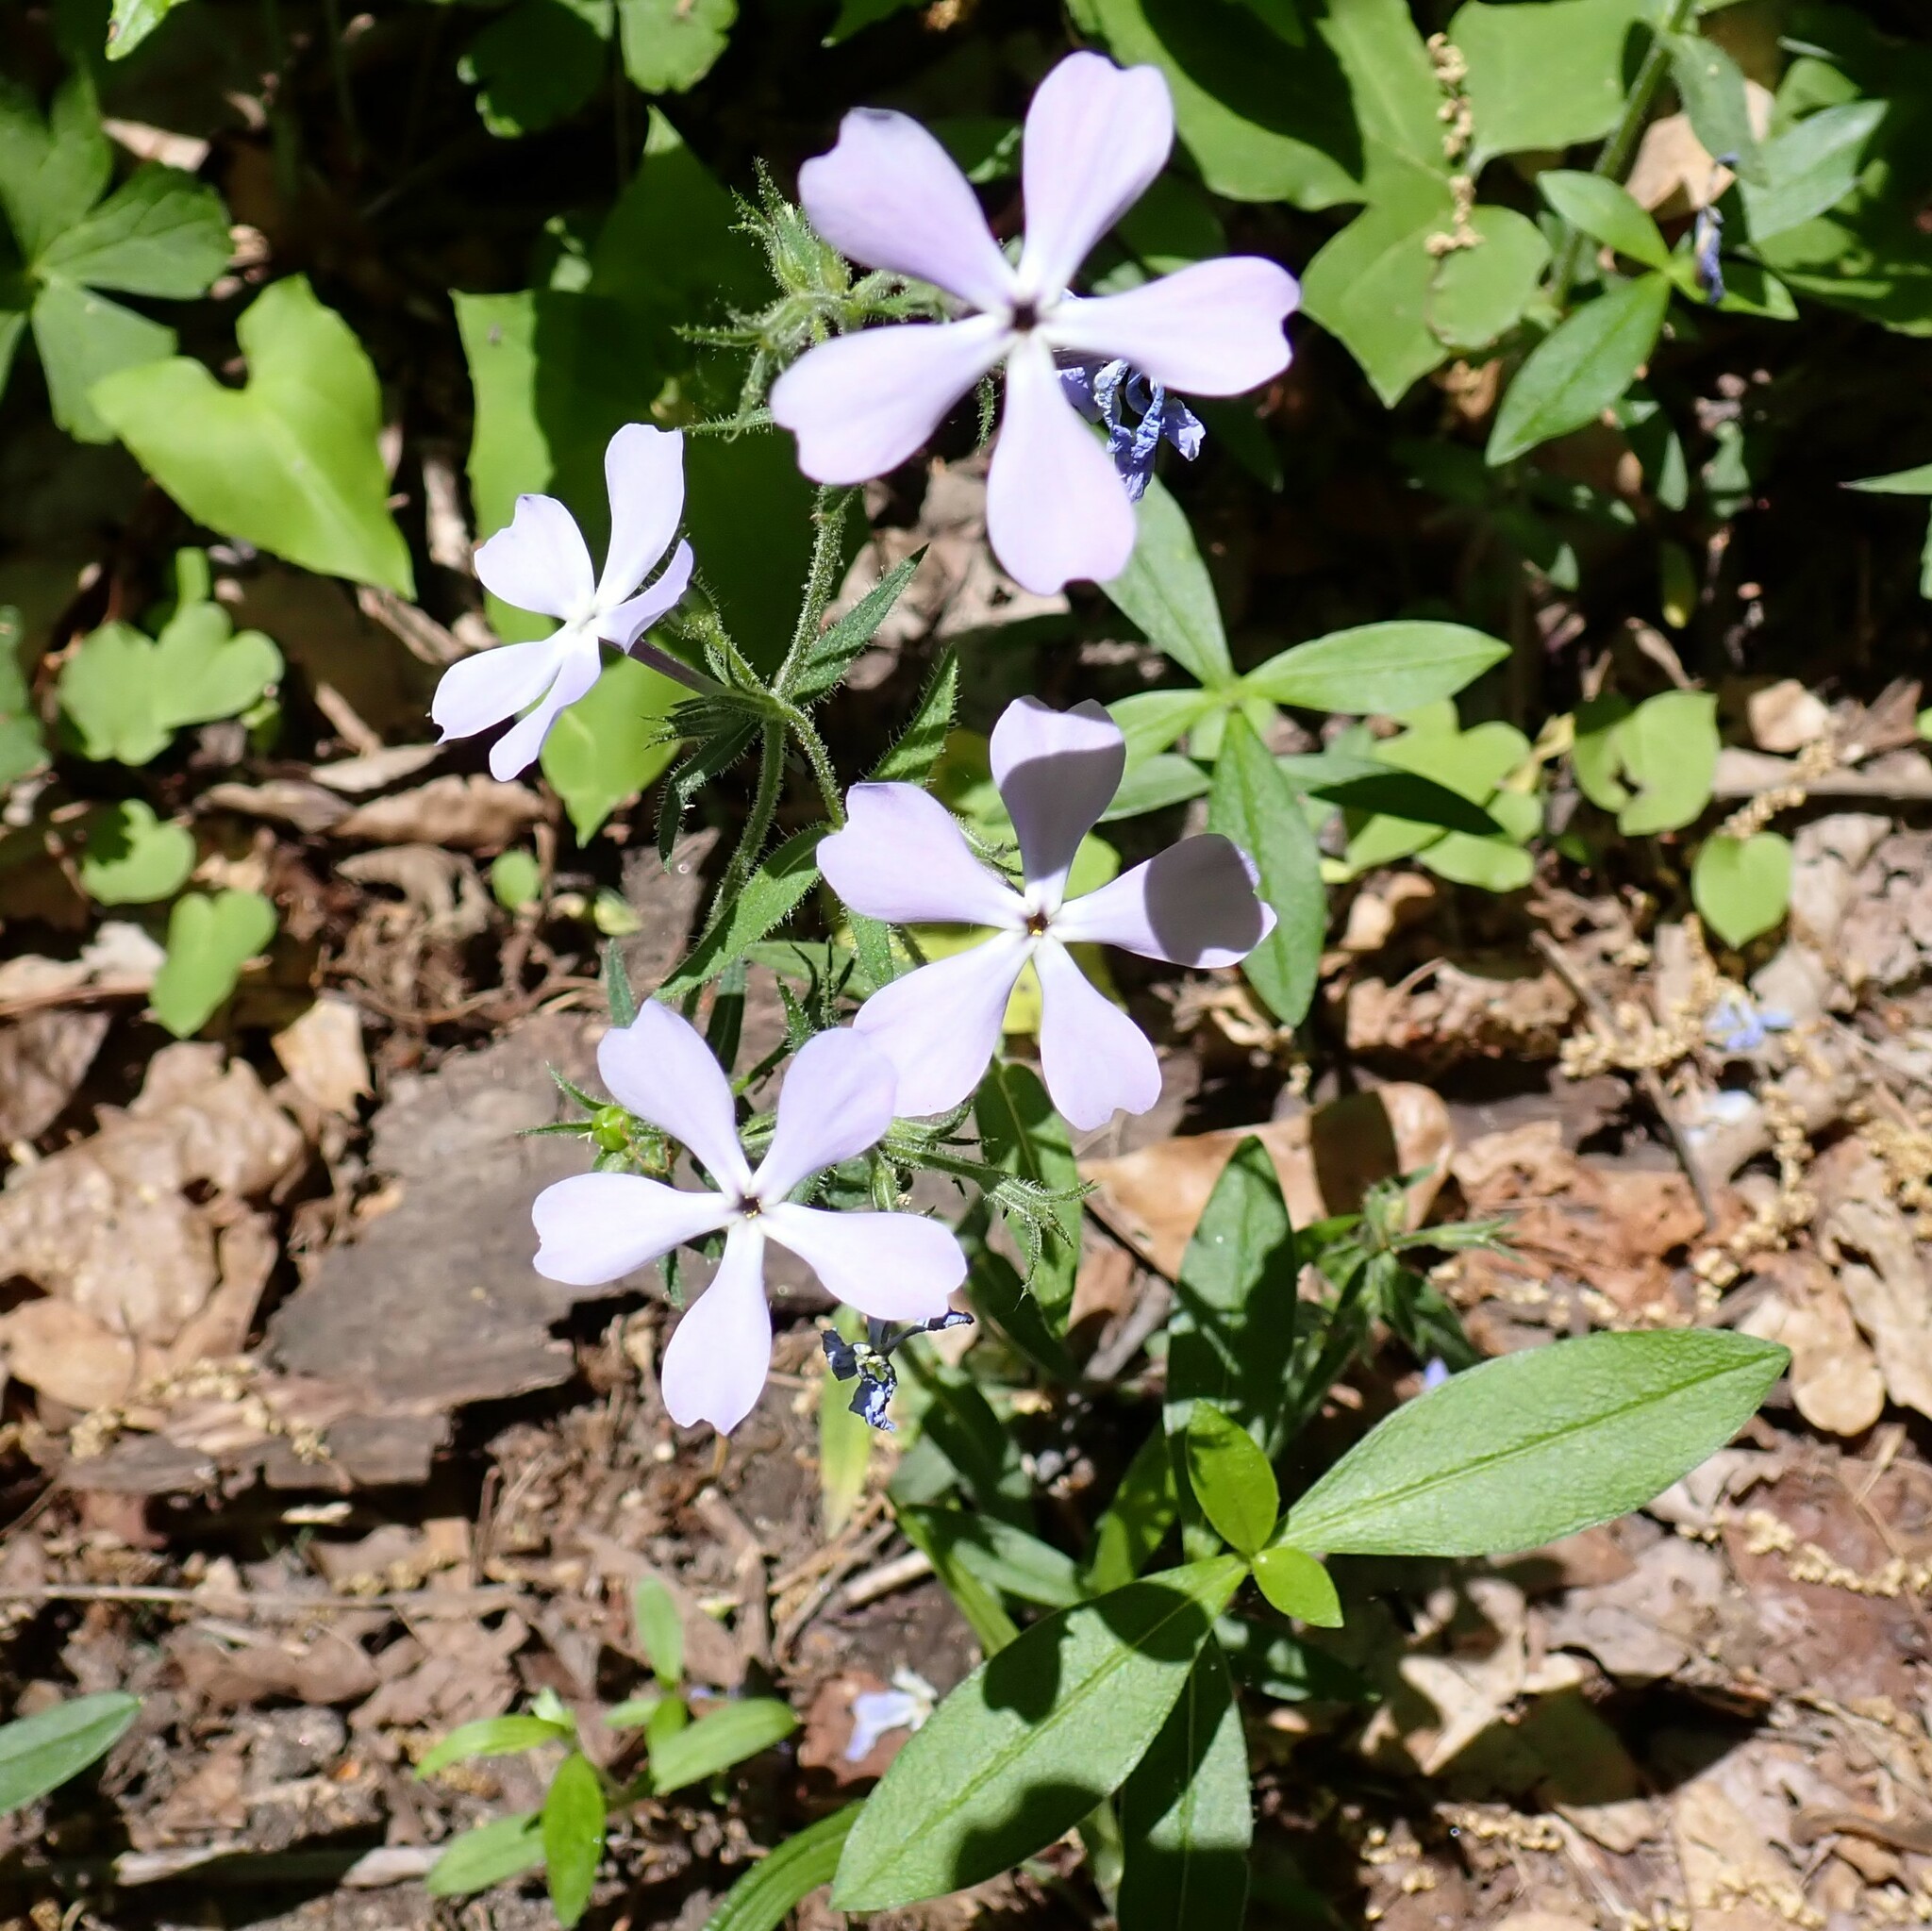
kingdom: Plantae
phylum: Tracheophyta
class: Magnoliopsida
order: Ericales
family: Polemoniaceae
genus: Phlox
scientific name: Phlox divaricata
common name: Blue phlox
